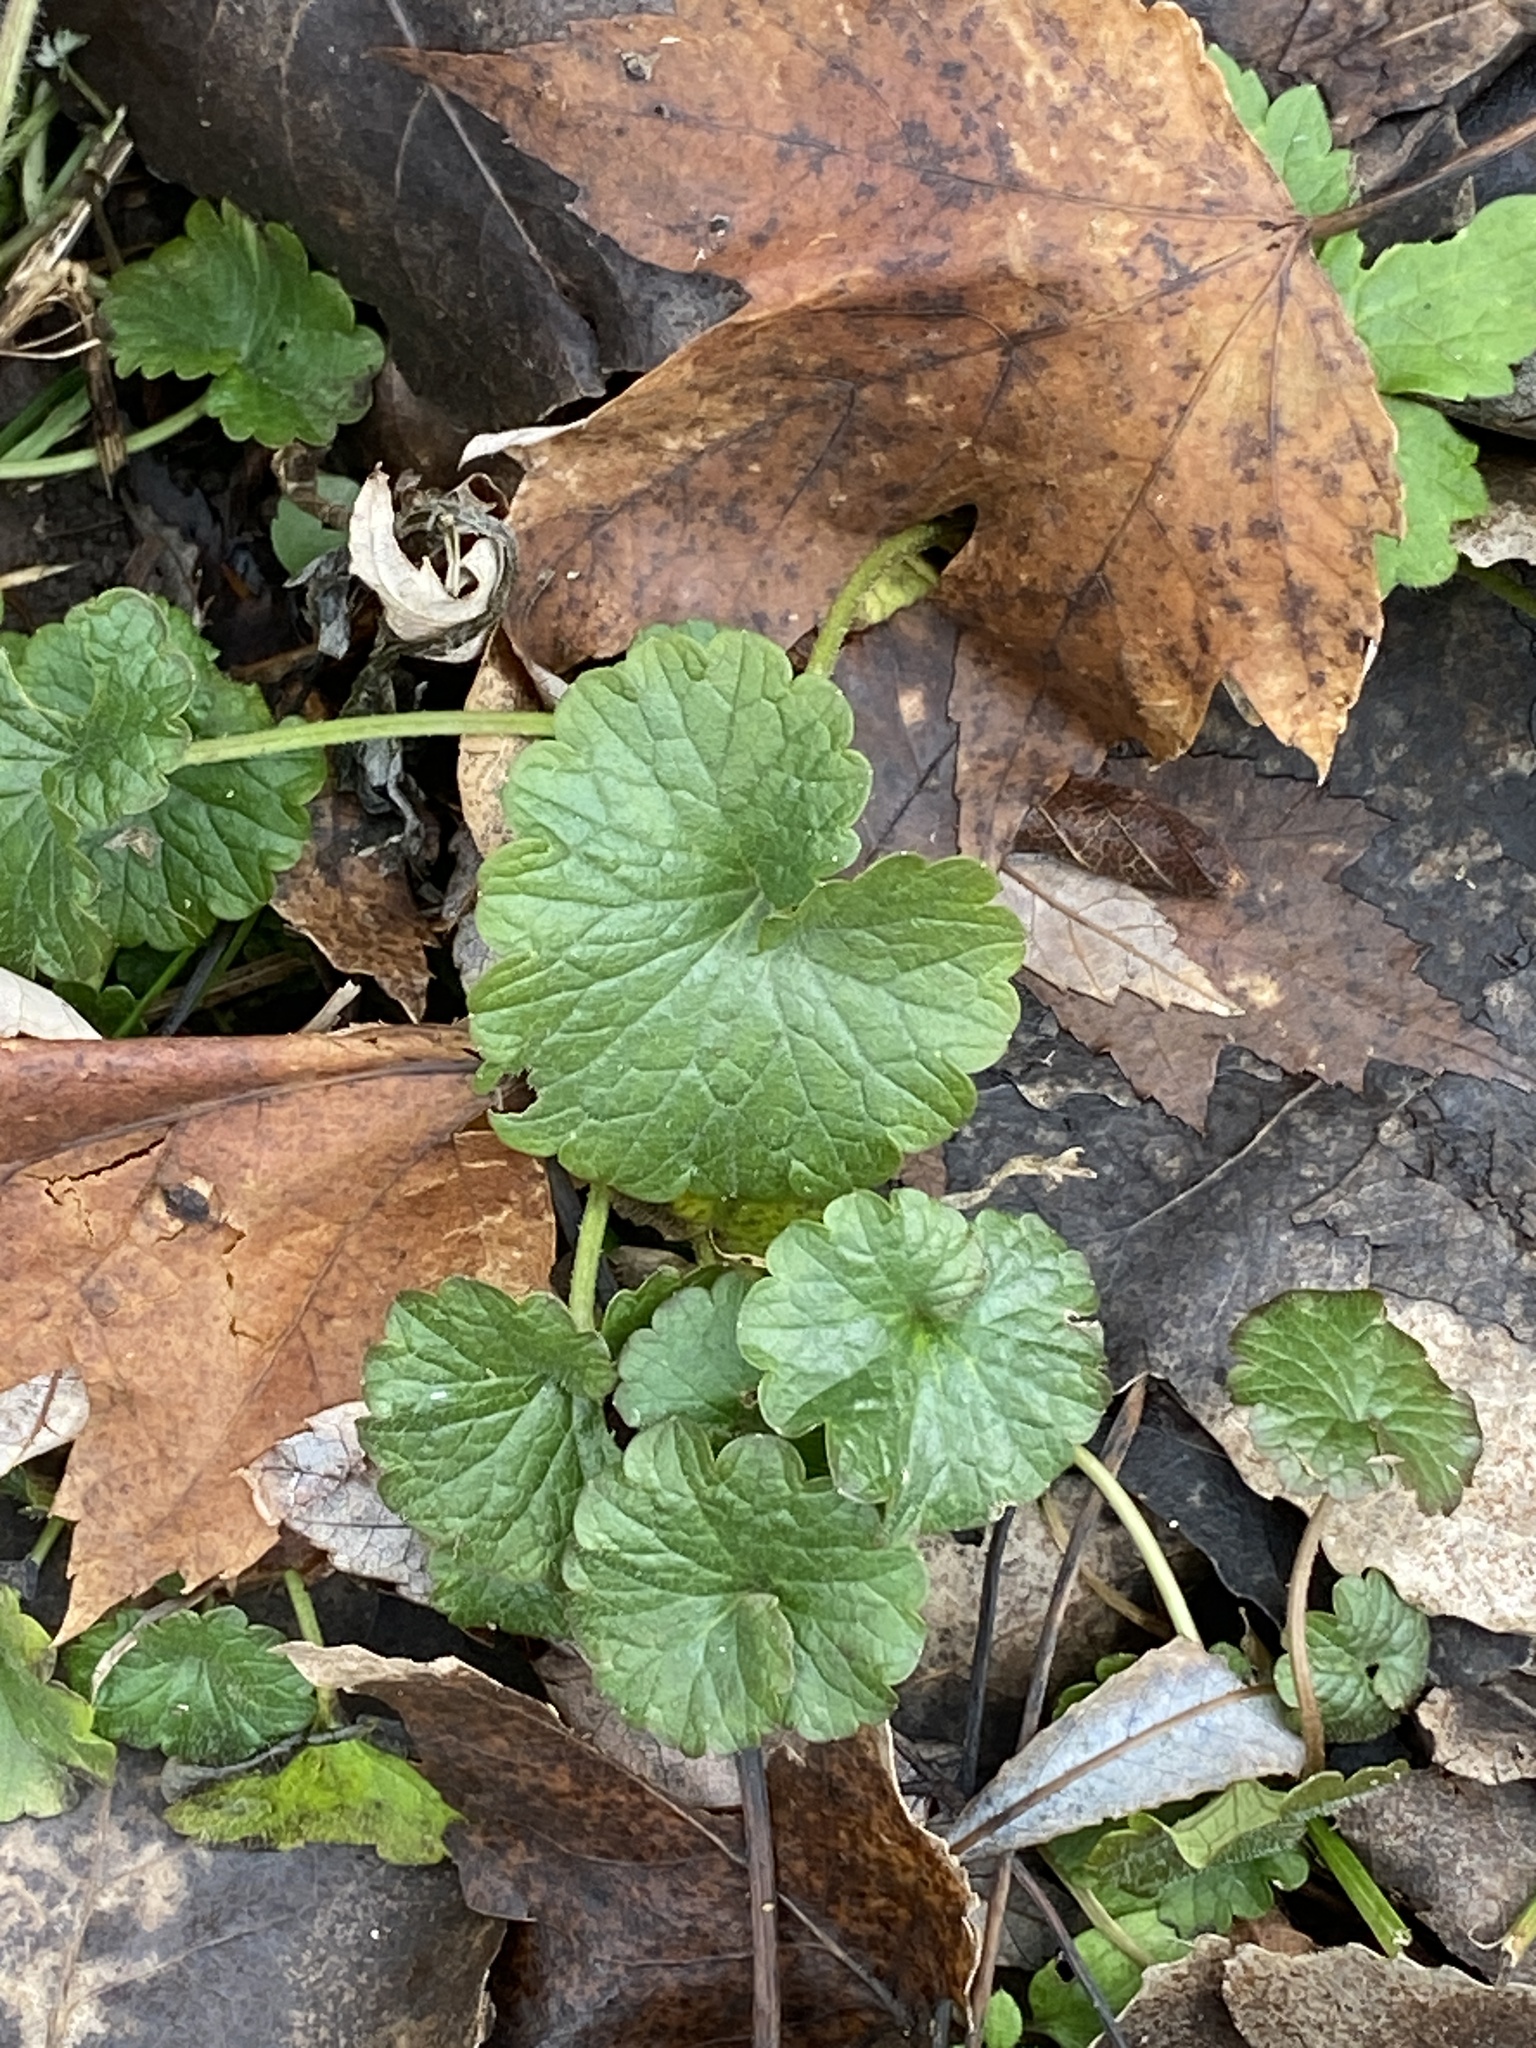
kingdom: Plantae
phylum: Tracheophyta
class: Magnoliopsida
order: Lamiales
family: Lamiaceae
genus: Glechoma
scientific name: Glechoma hederacea
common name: Ground ivy
